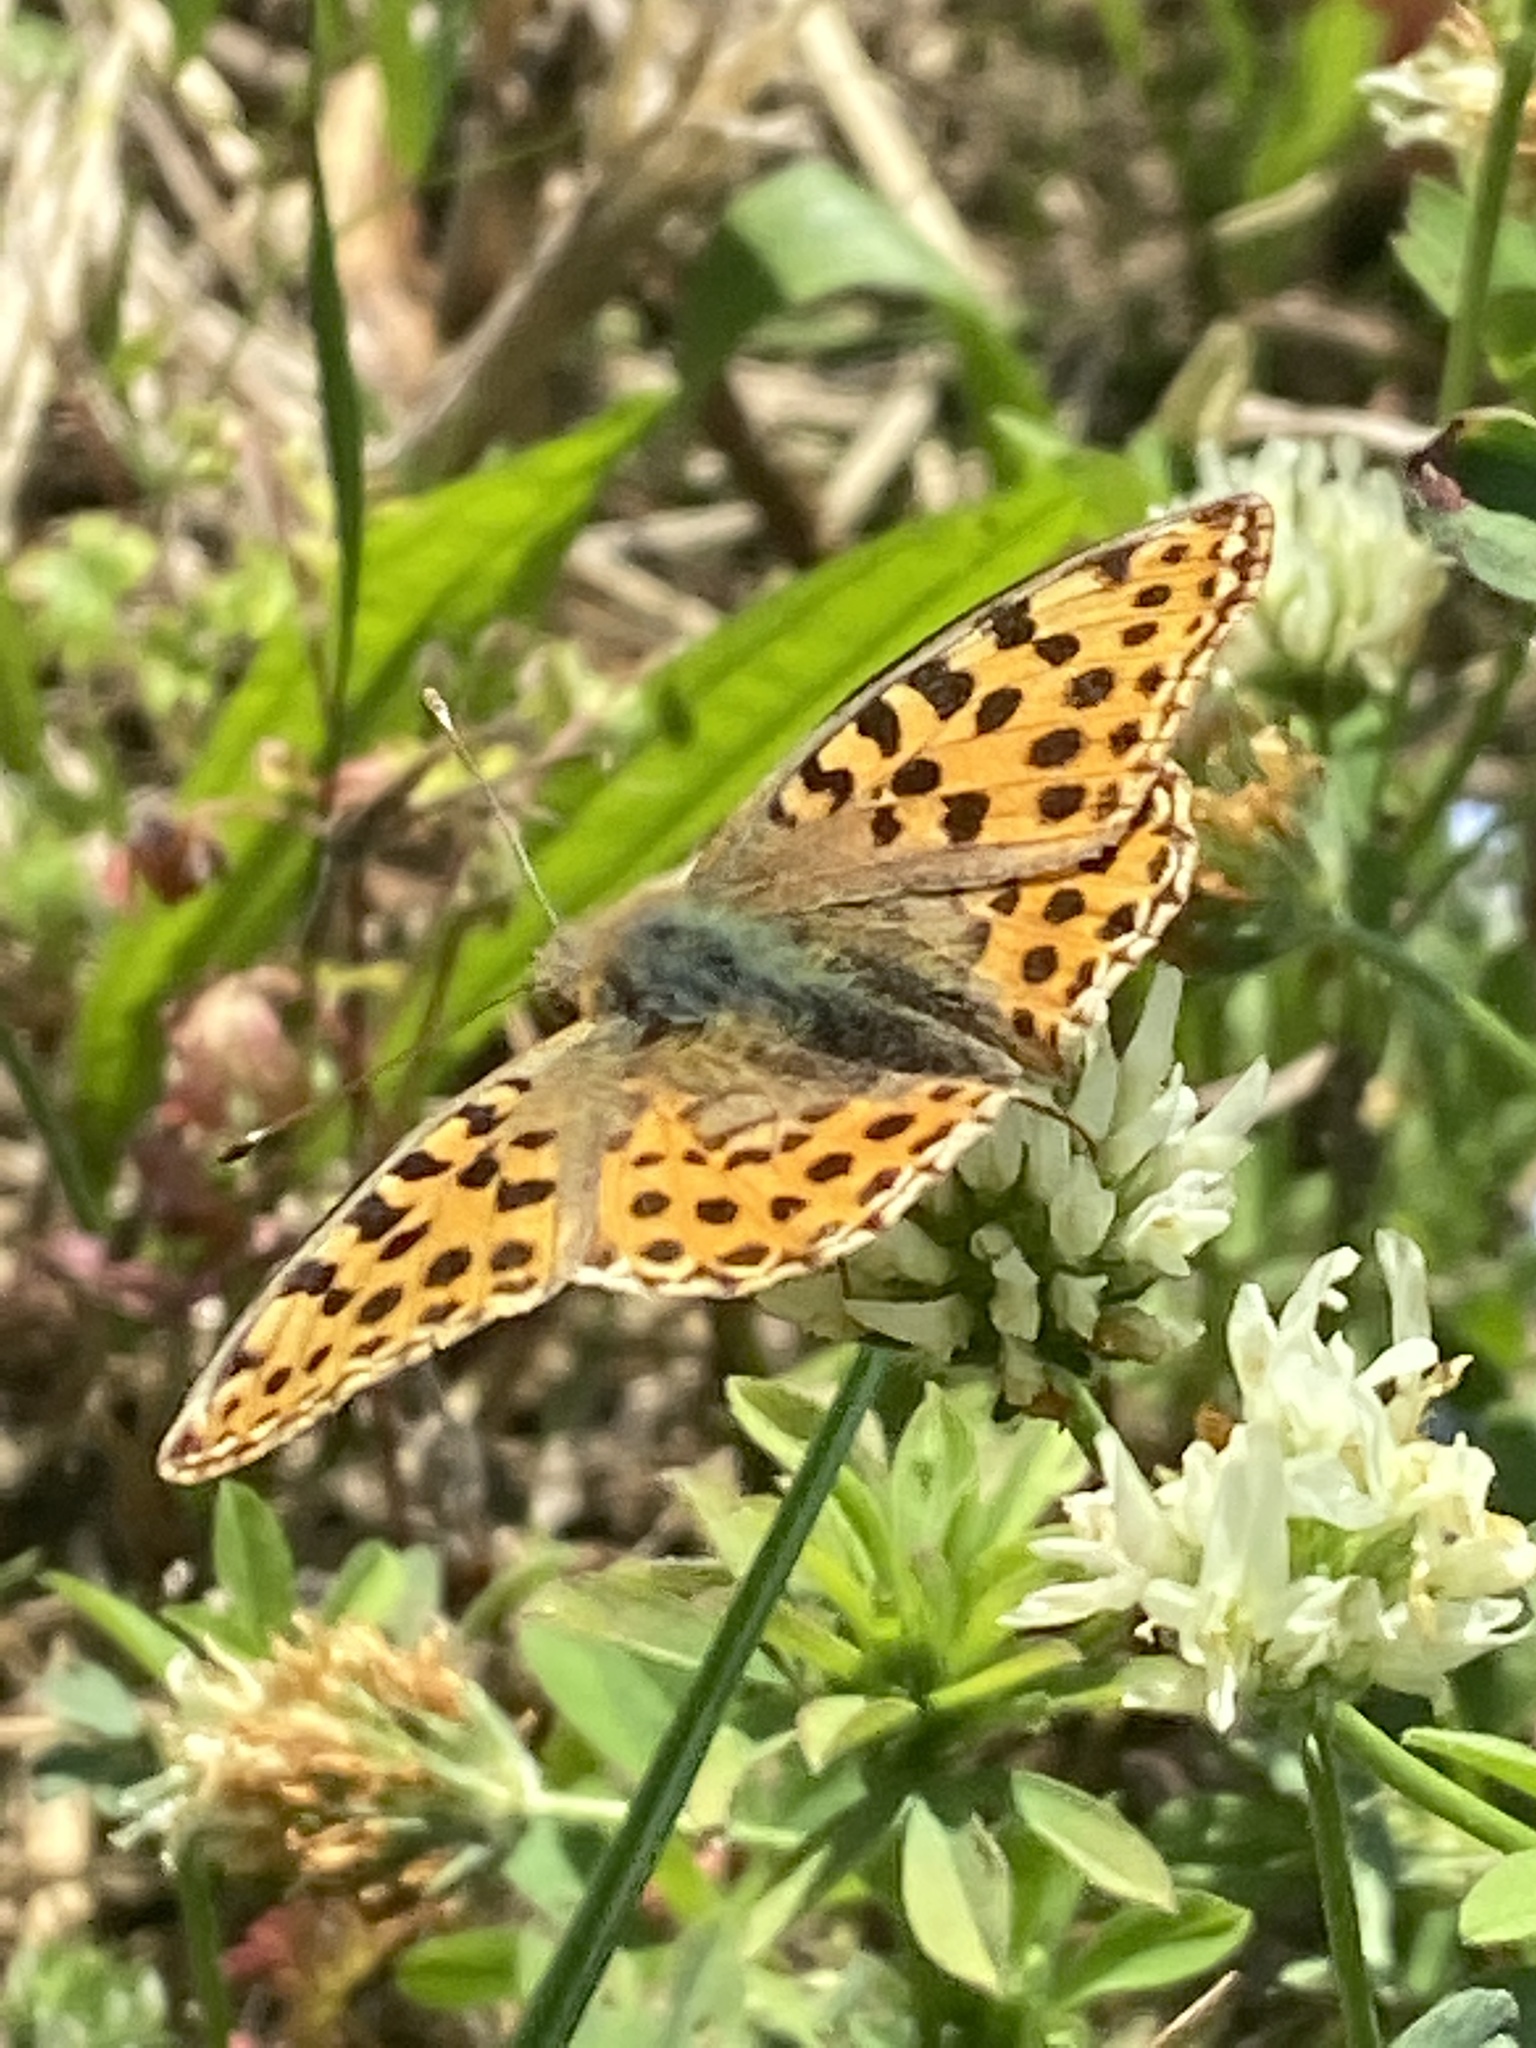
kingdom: Animalia
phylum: Arthropoda
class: Insecta
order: Lepidoptera
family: Nymphalidae
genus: Issoria
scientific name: Issoria lathonia
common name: Queen of spain fritillary
